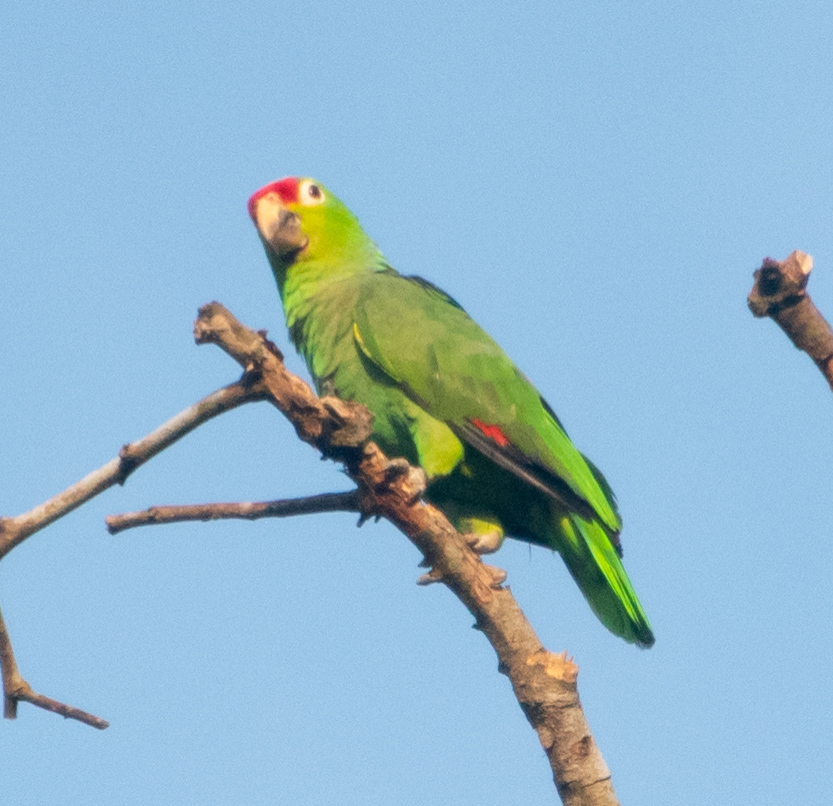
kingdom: Animalia
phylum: Chordata
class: Aves
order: Psittaciformes
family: Psittacidae
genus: Amazona
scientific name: Amazona autumnalis
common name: Red-lored amazon
